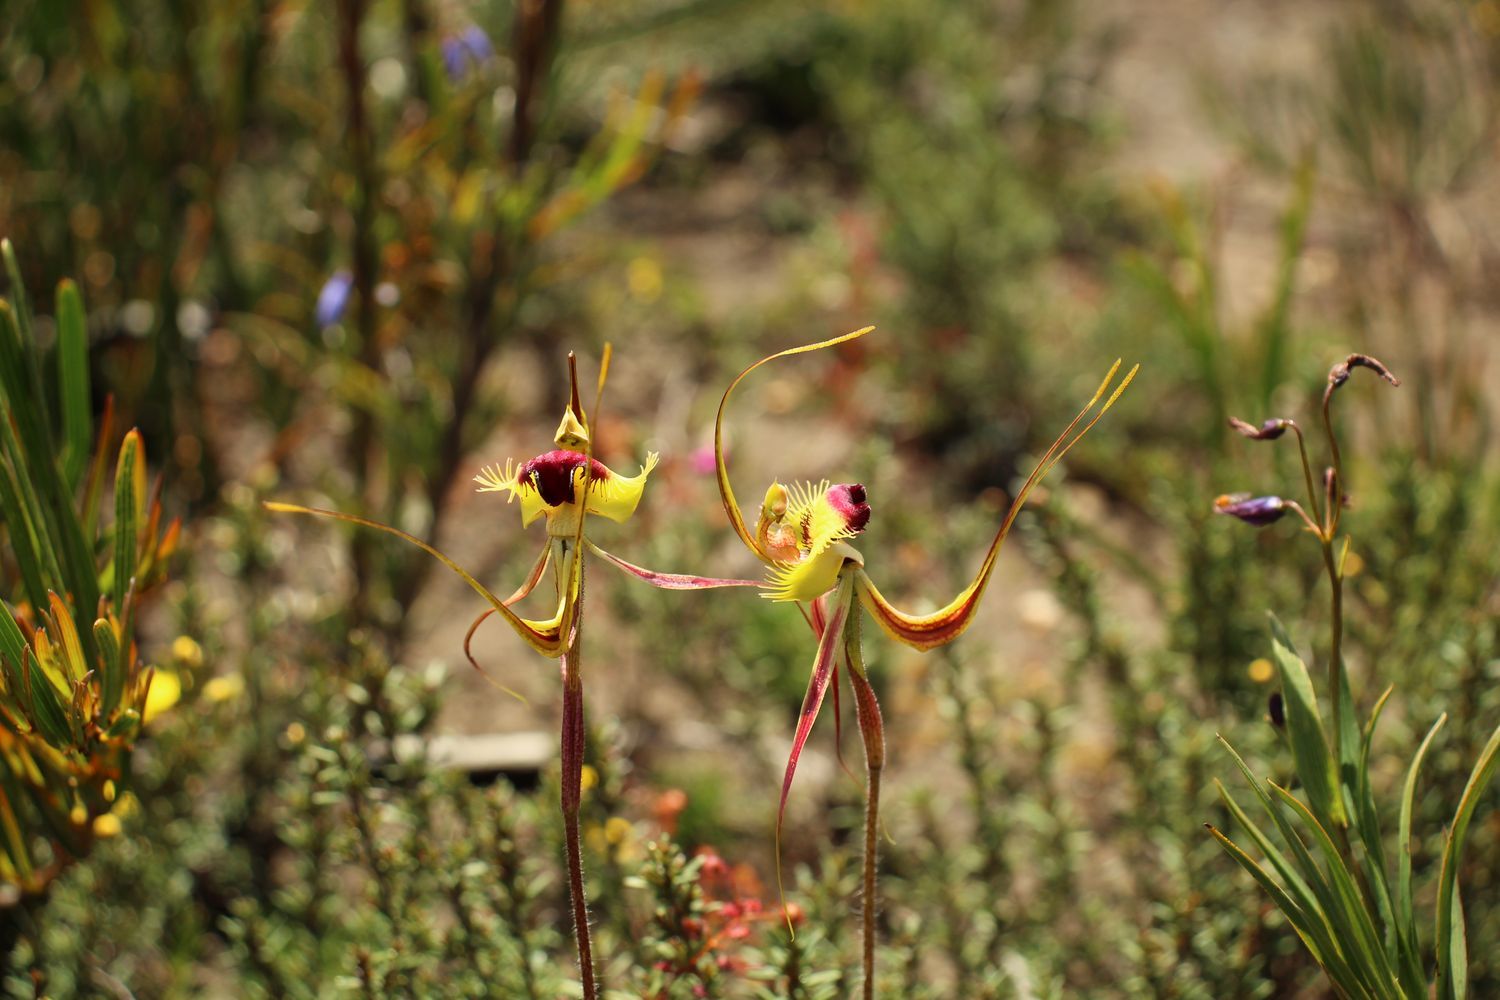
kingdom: Plantae
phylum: Tracheophyta
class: Liliopsida
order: Asparagales
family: Orchidaceae
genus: Caladenia
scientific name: Caladenia lobata
